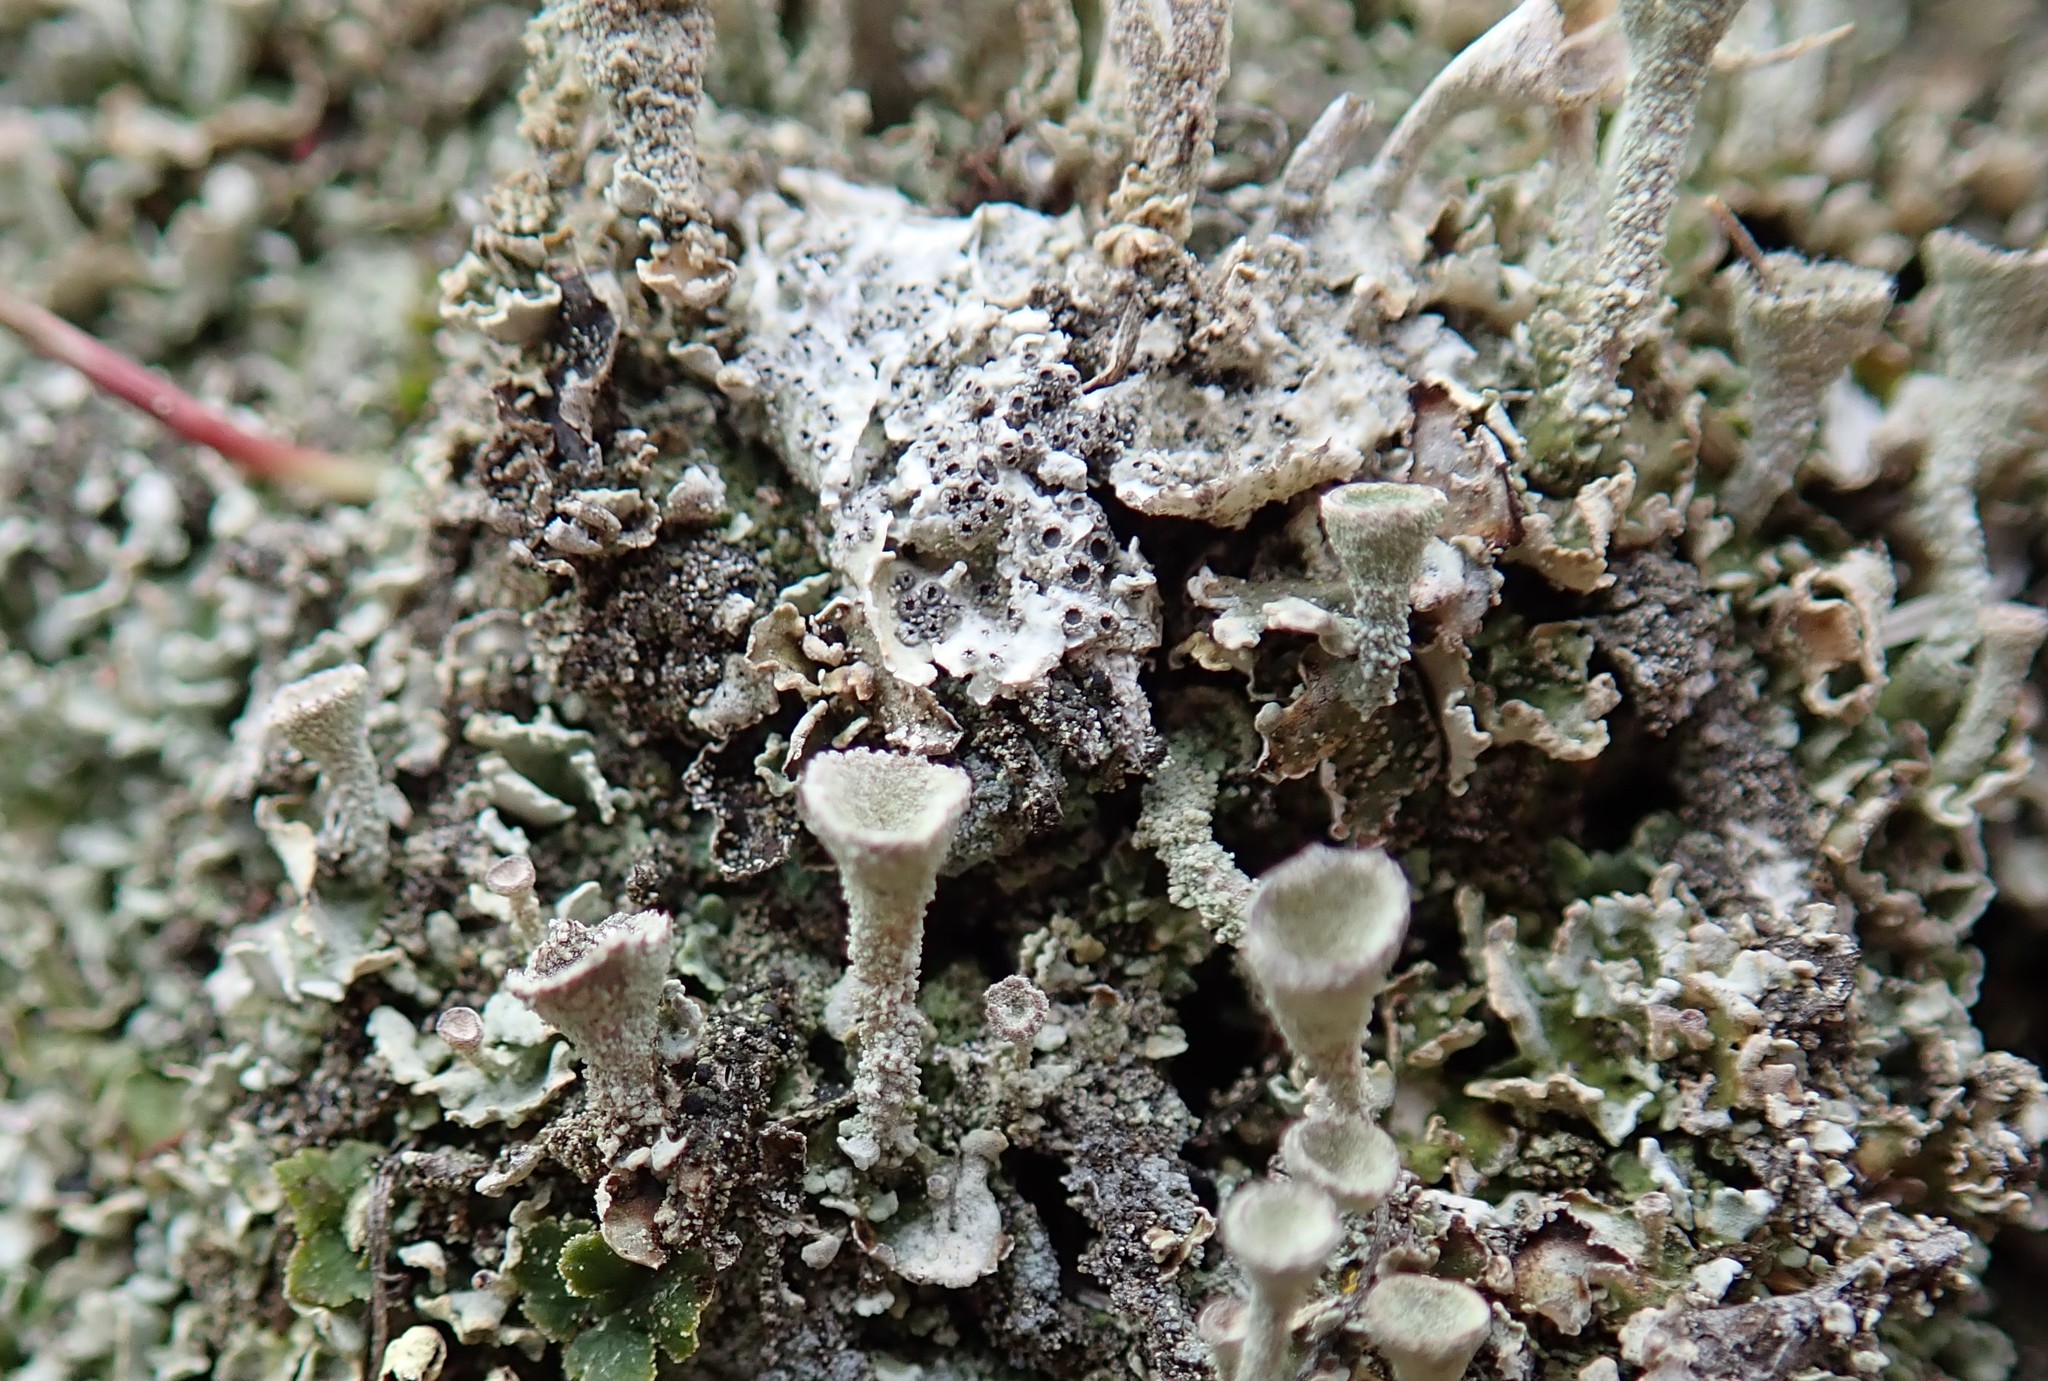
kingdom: Fungi
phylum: Ascomycota
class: Lecanoromycetes
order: Ostropales
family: Graphidaceae
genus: Diploschistes
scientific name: Diploschistes muscorum
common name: Cowpie lichen
